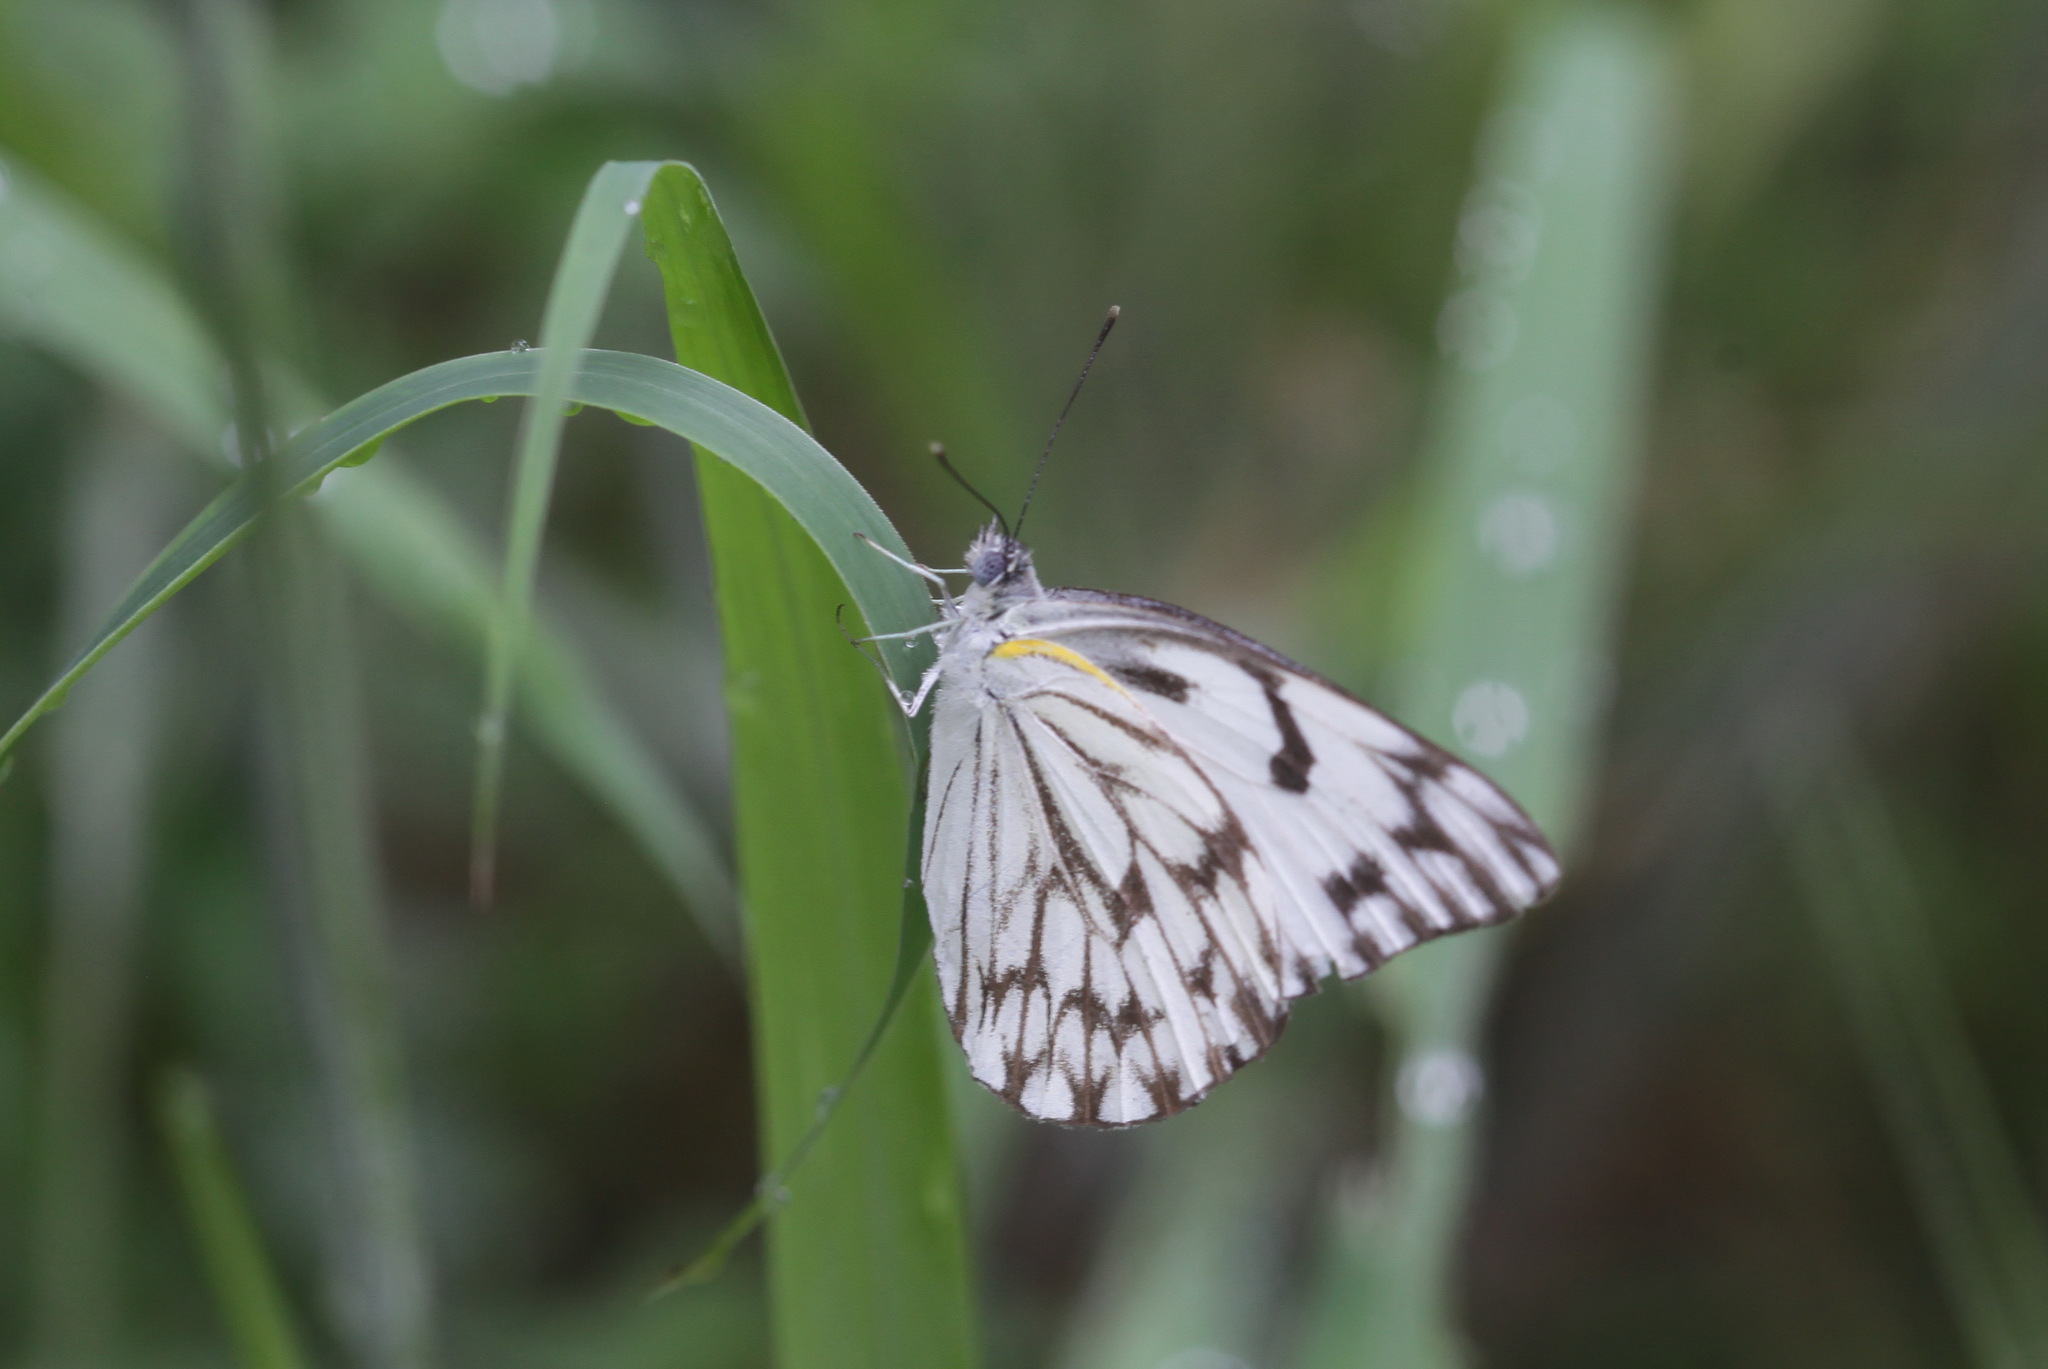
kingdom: Animalia
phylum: Arthropoda
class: Insecta
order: Lepidoptera
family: Pieridae
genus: Belenois
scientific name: Belenois gidica
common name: Pointed caper white
